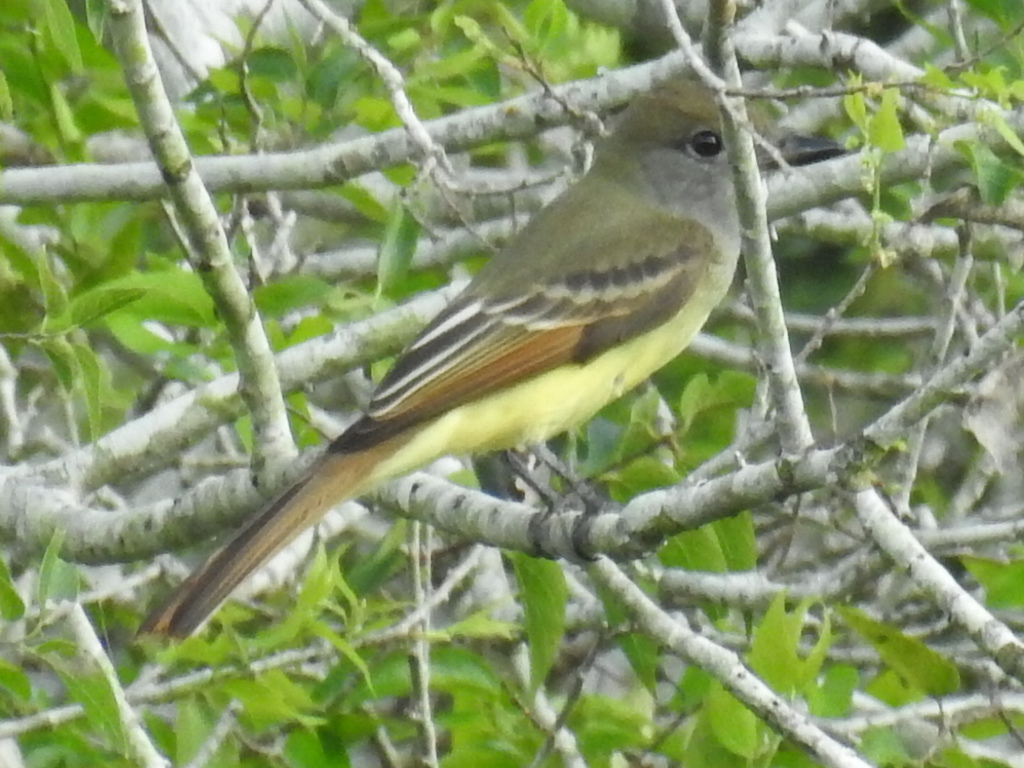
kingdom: Animalia
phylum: Chordata
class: Aves
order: Passeriformes
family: Tyrannidae
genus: Myiarchus
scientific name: Myiarchus crinitus
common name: Great crested flycatcher
